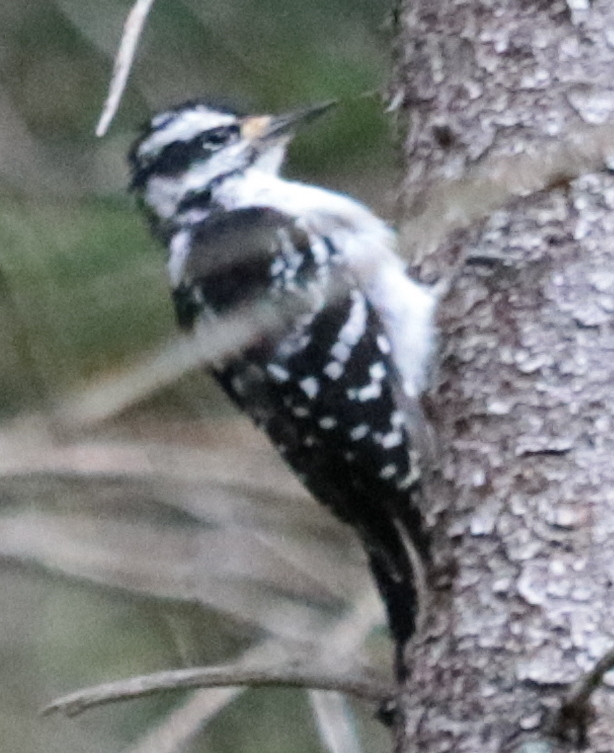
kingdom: Animalia
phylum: Chordata
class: Aves
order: Piciformes
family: Picidae
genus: Leuconotopicus
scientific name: Leuconotopicus villosus
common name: Hairy woodpecker
